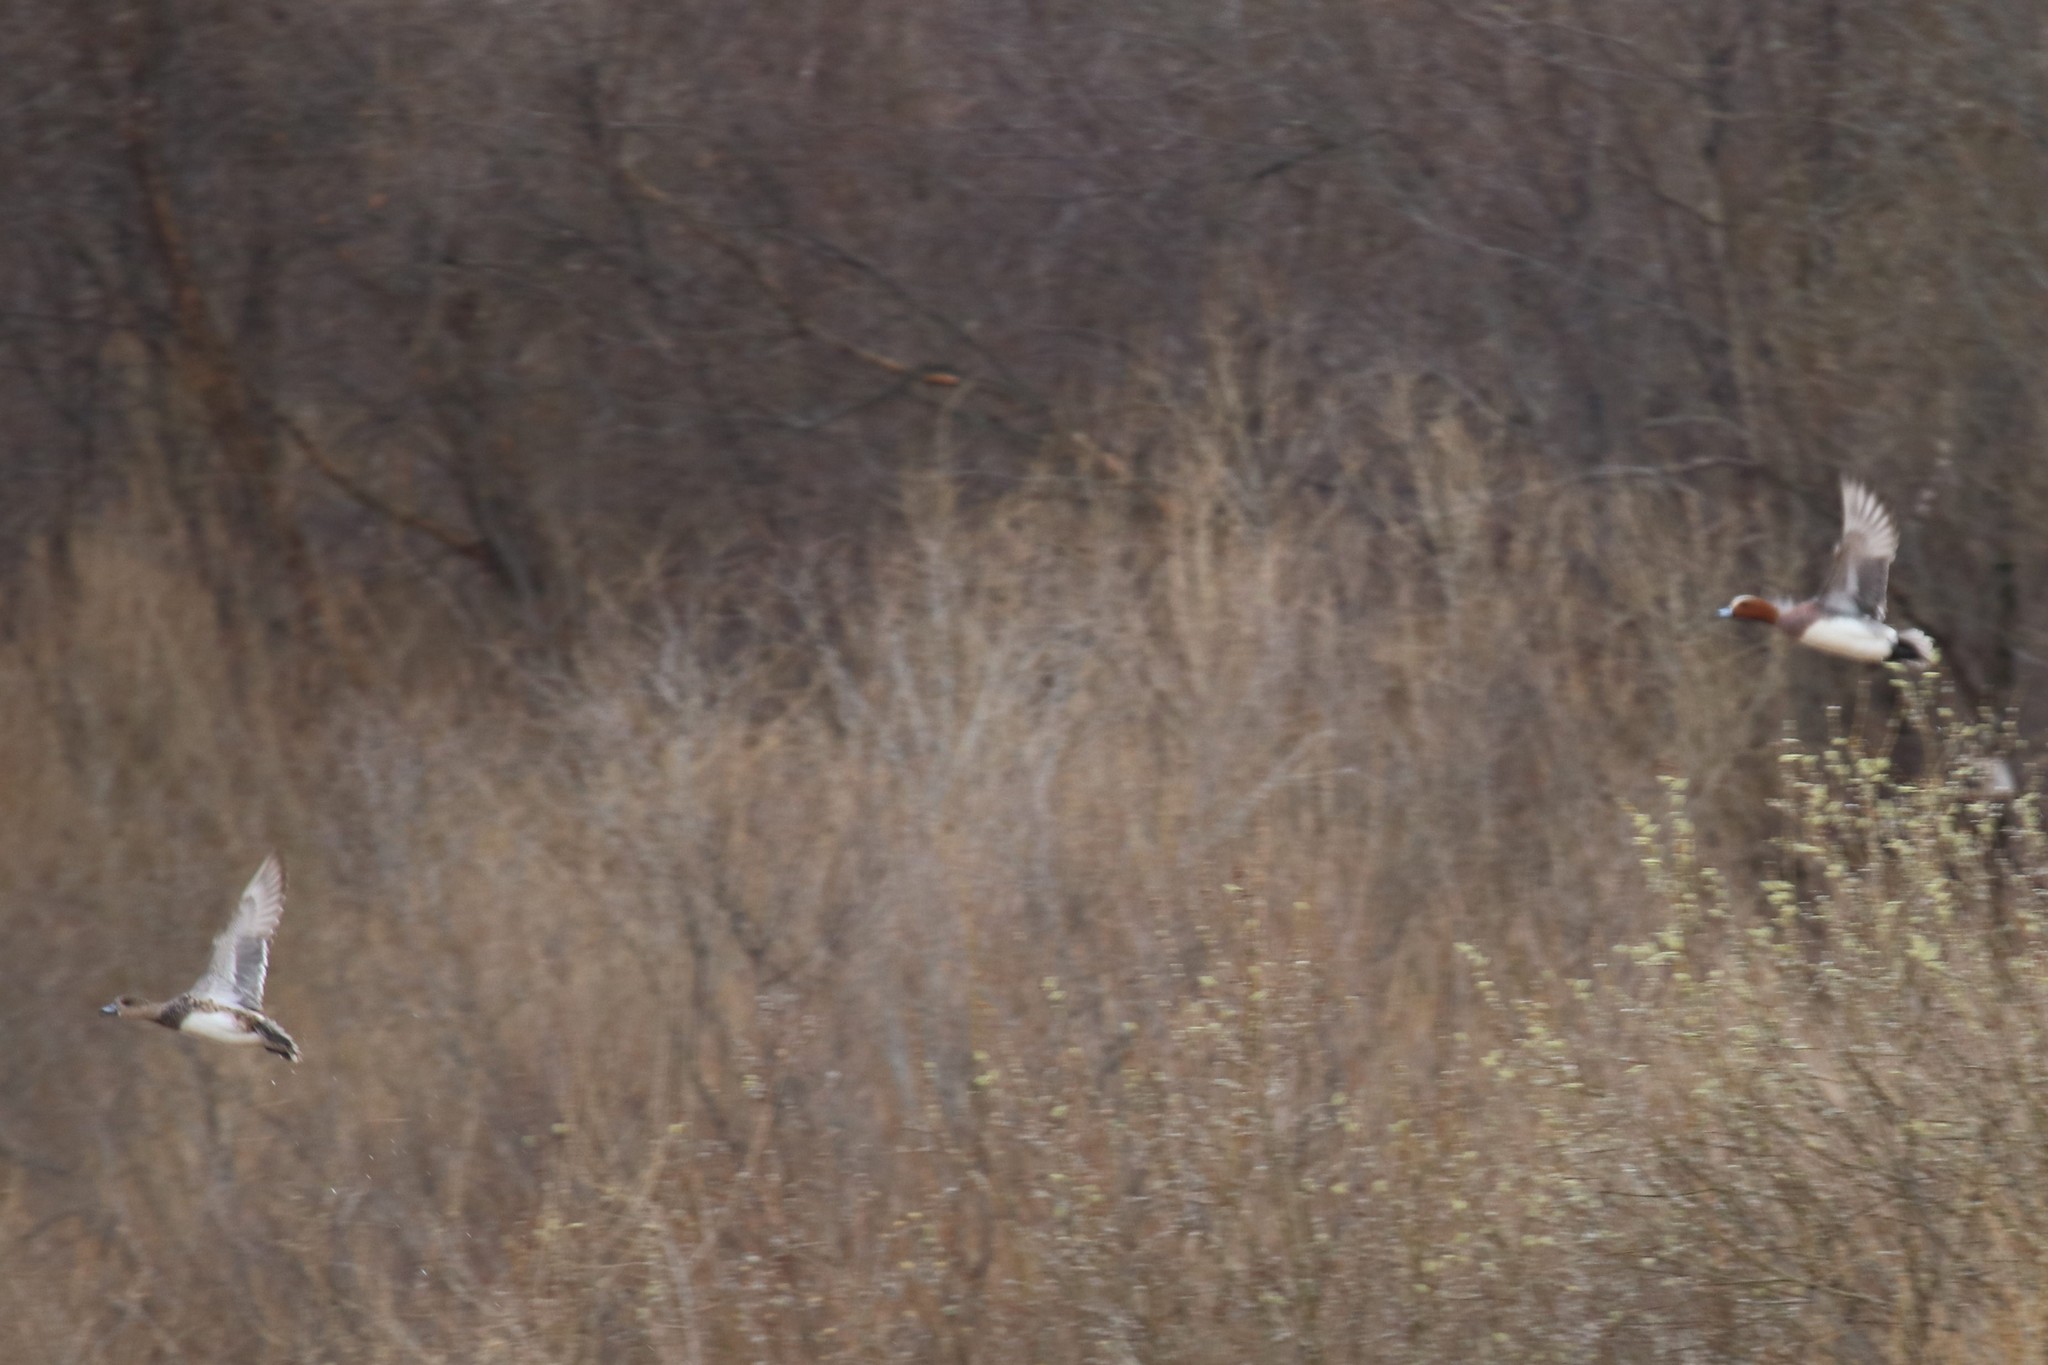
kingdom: Animalia
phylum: Chordata
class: Aves
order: Anseriformes
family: Anatidae
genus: Mareca
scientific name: Mareca penelope
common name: Eurasian wigeon
